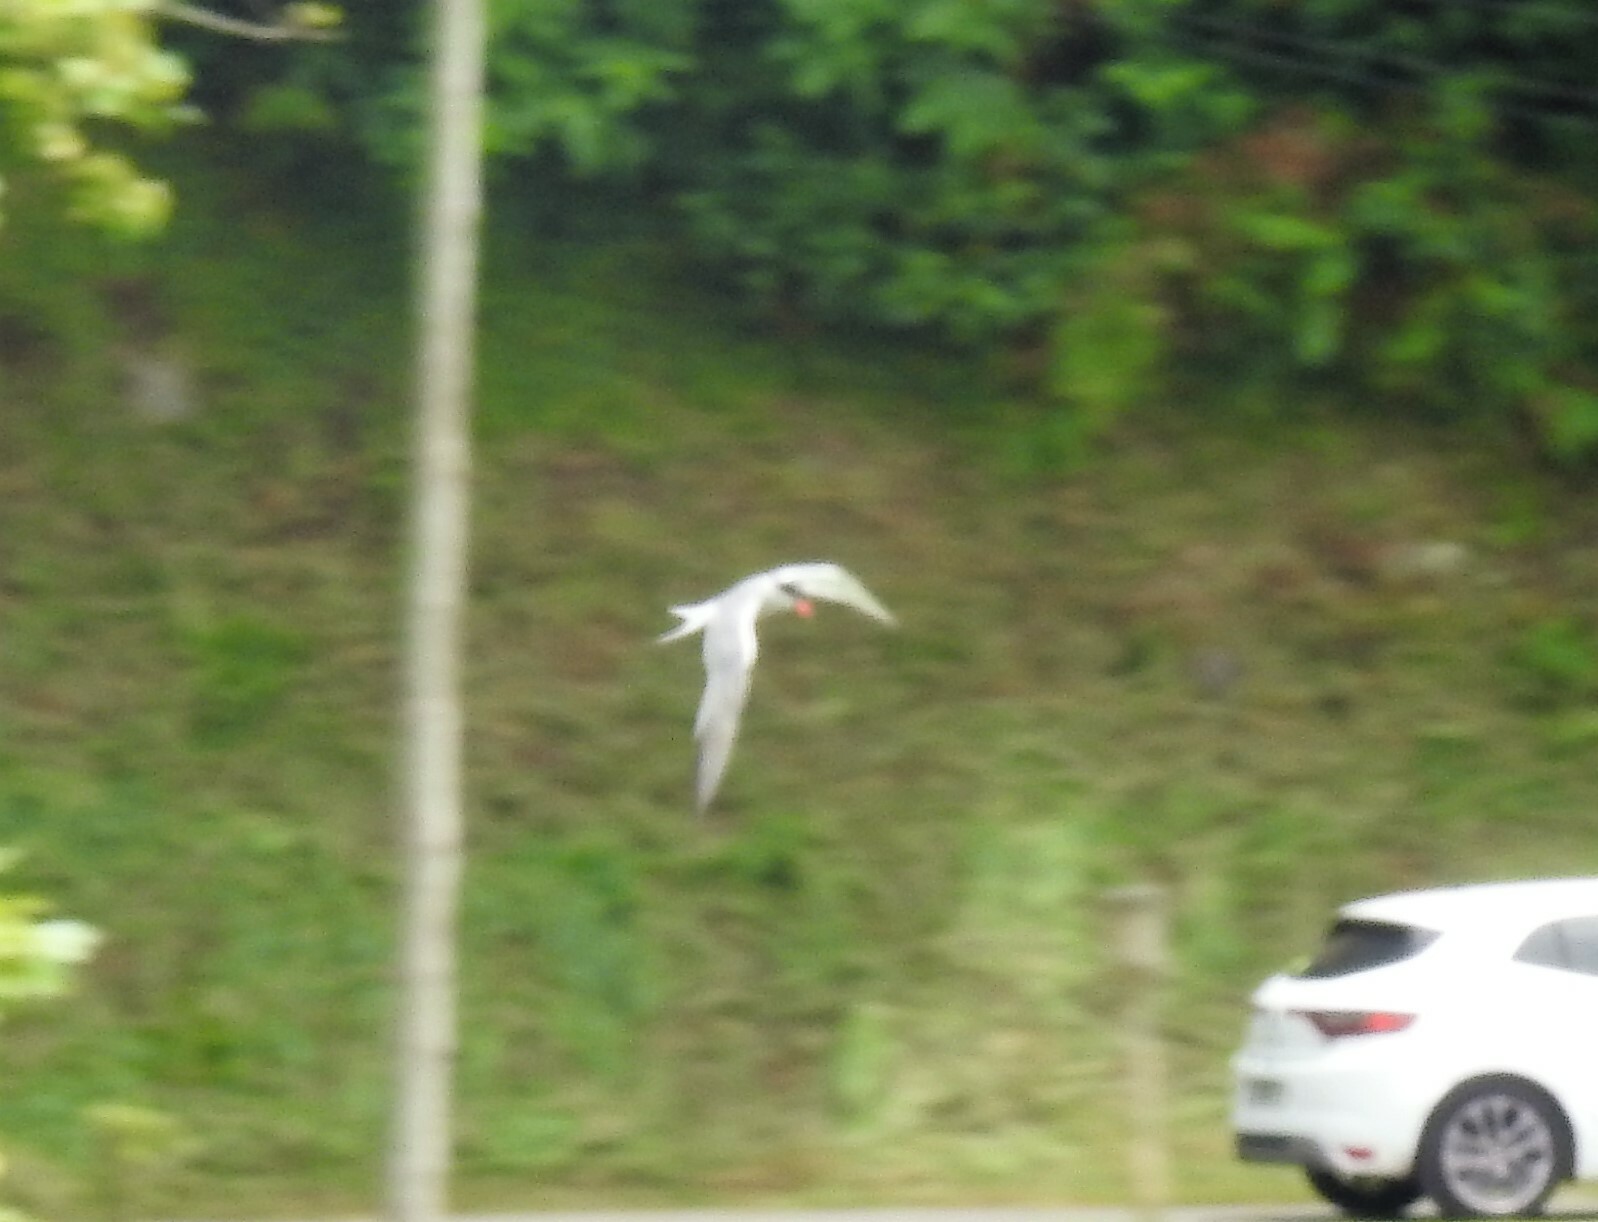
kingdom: Animalia
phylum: Chordata
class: Aves
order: Charadriiformes
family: Laridae
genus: Sterna
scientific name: Sterna hirundo
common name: Common tern
